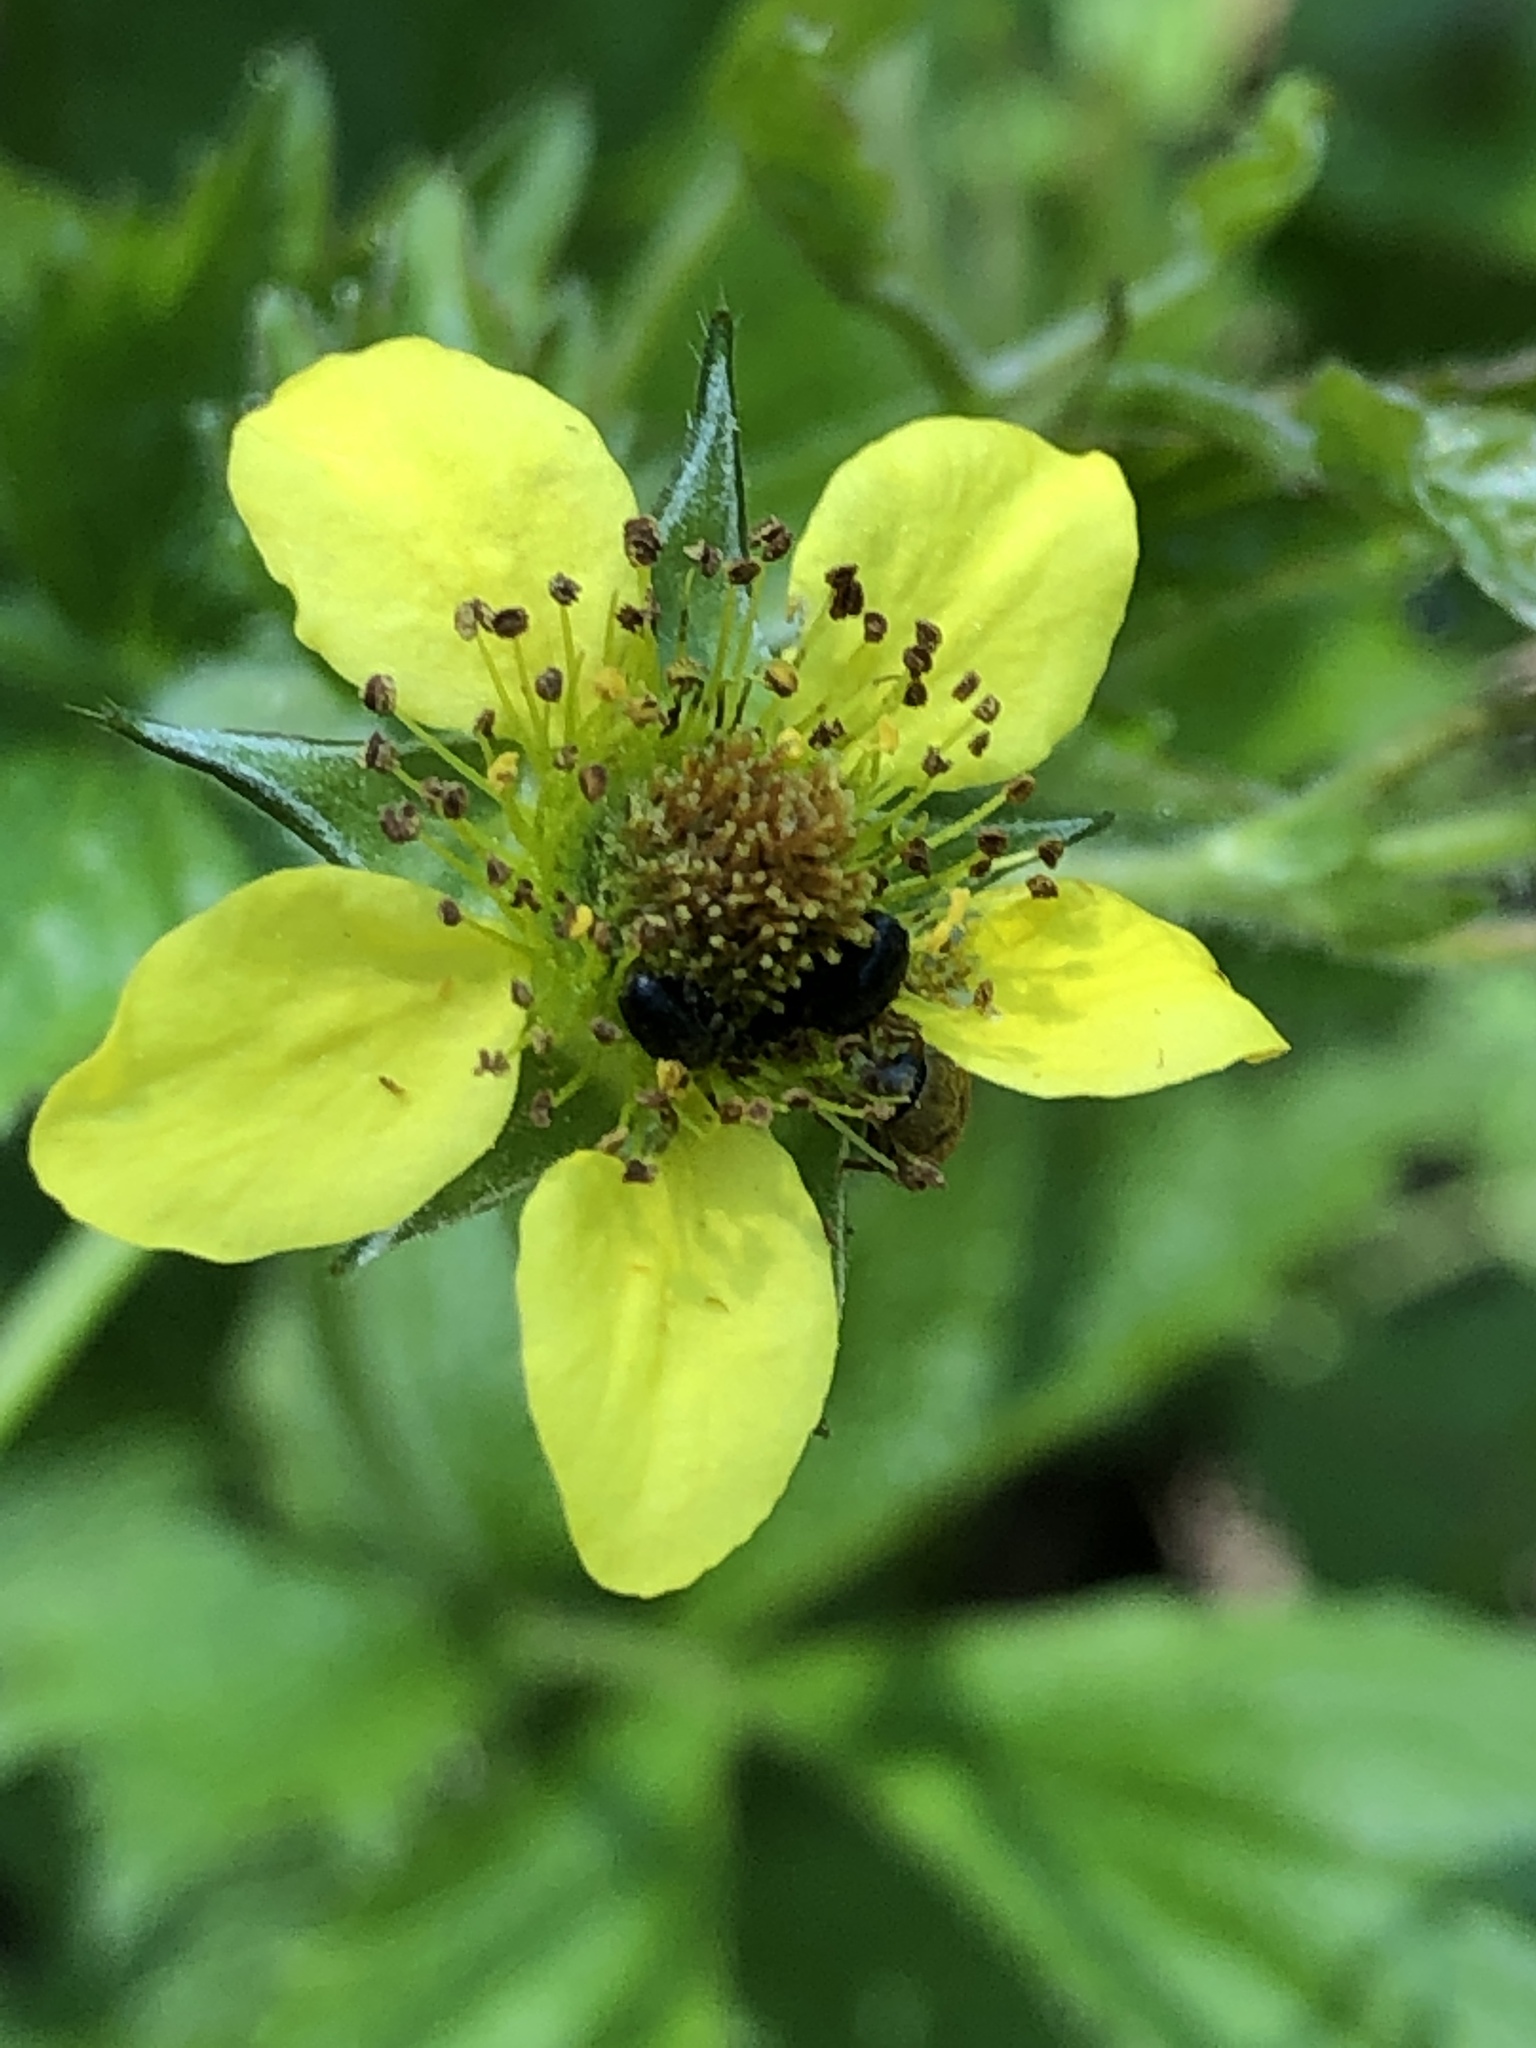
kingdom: Plantae
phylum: Tracheophyta
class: Magnoliopsida
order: Rosales
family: Rosaceae
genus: Geum
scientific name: Geum urbanum
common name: Wood avens
